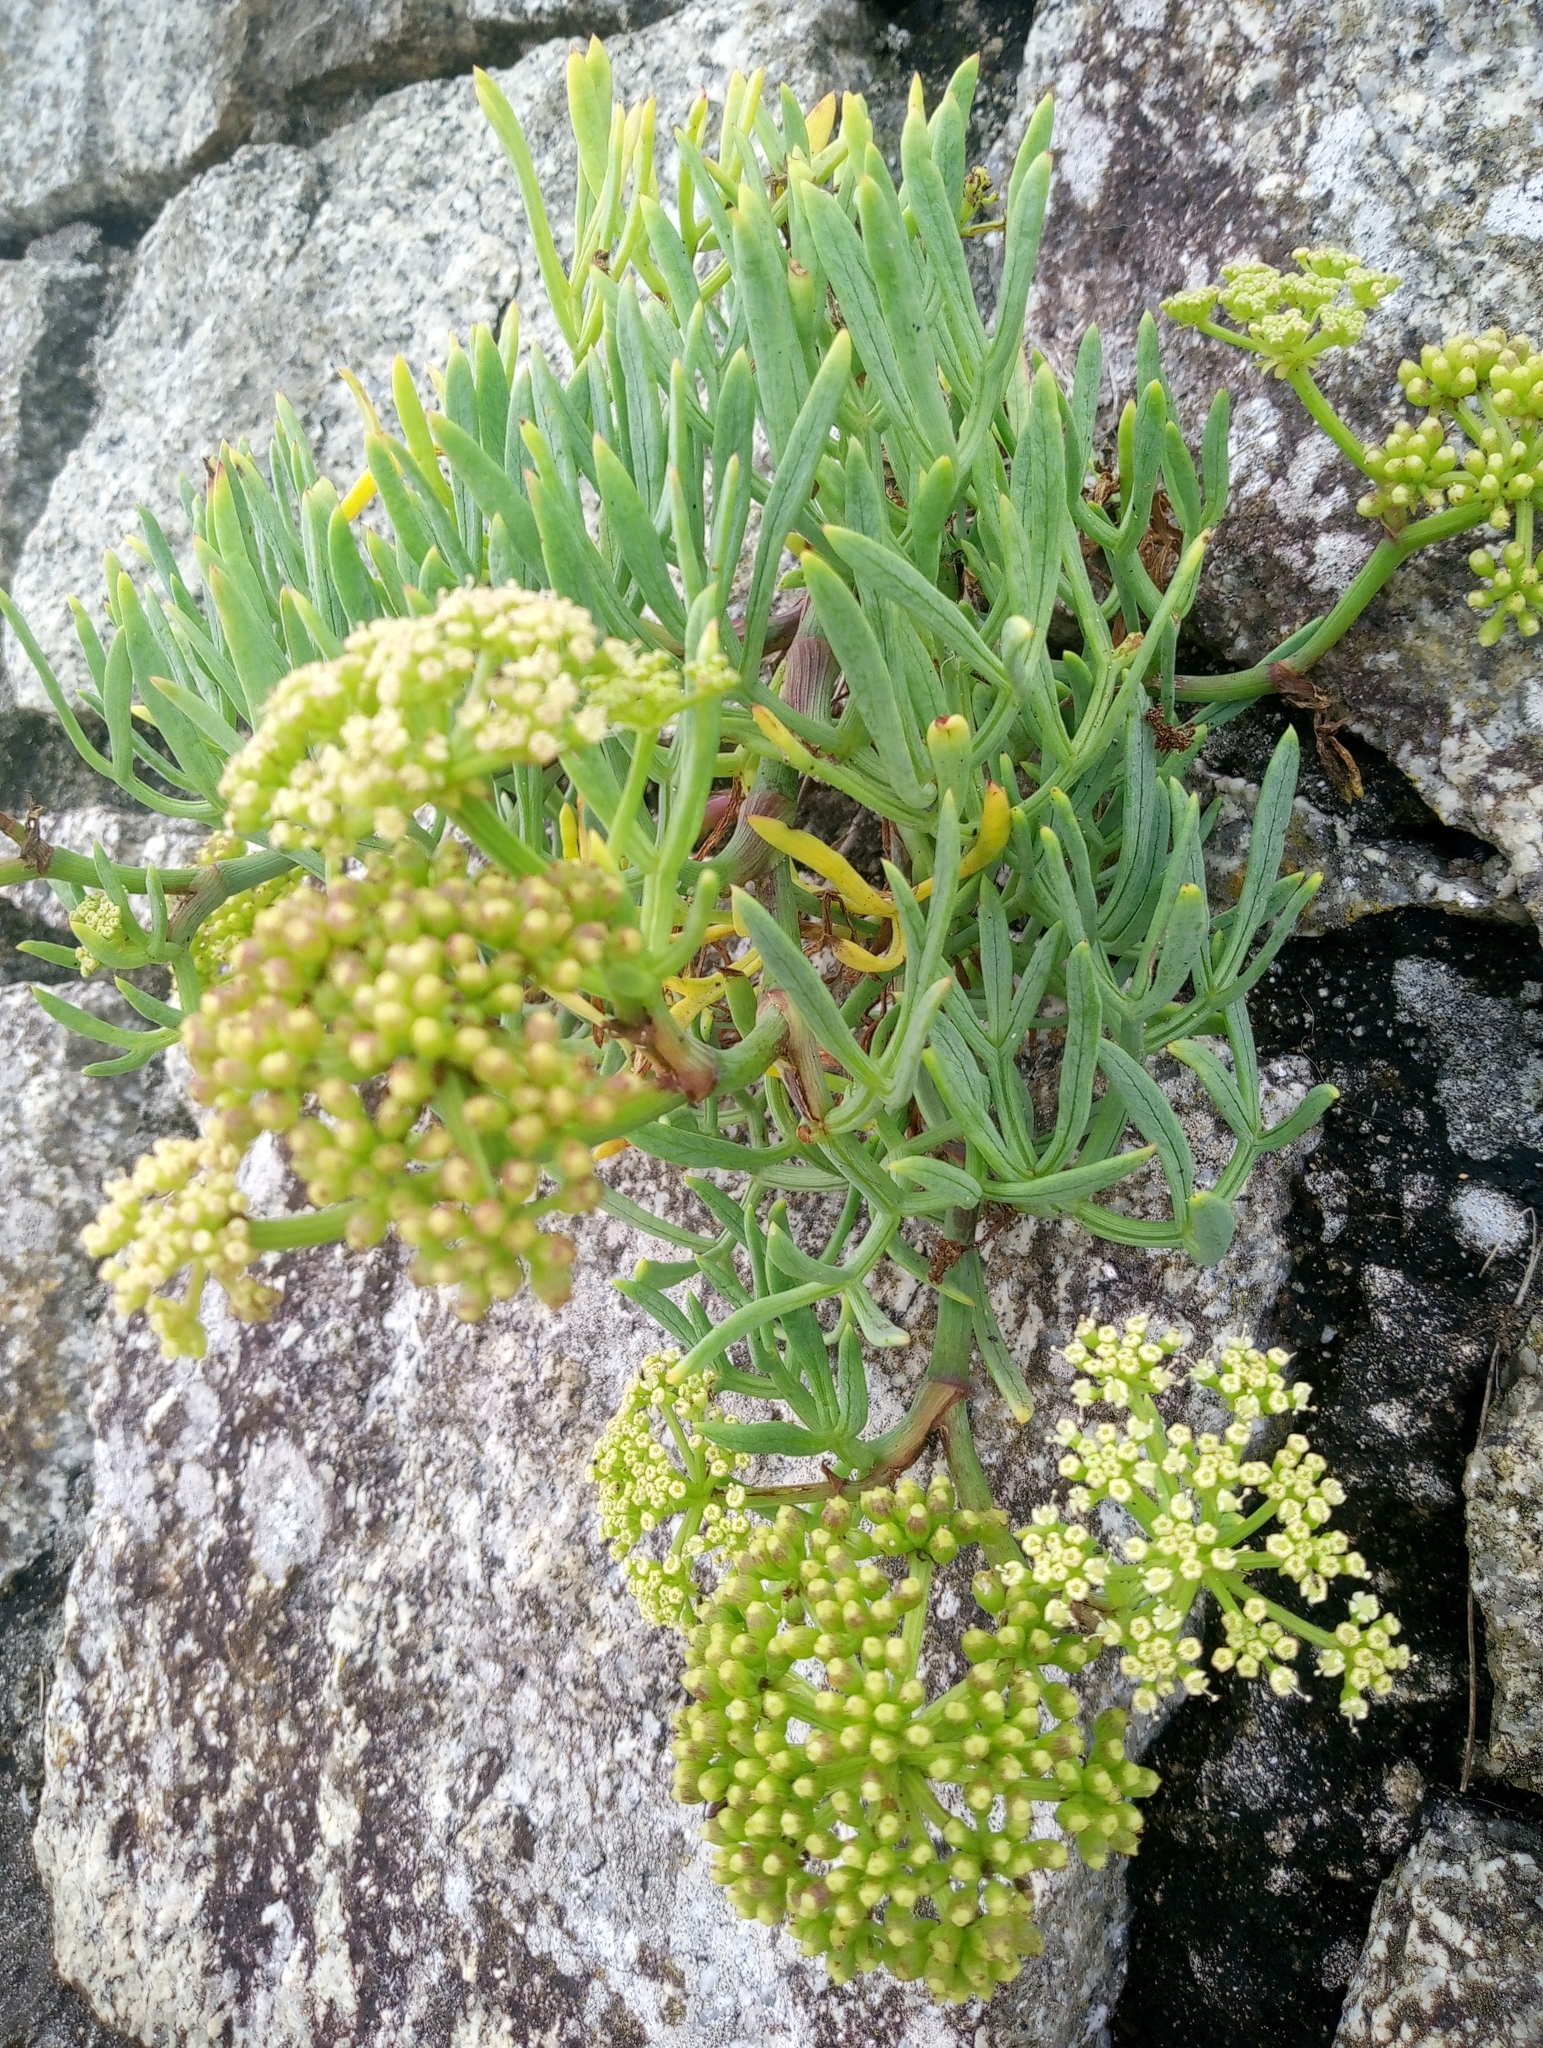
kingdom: Plantae
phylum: Tracheophyta
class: Magnoliopsida
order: Apiales
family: Apiaceae
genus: Crithmum
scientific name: Crithmum maritimum
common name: Rock samphire
